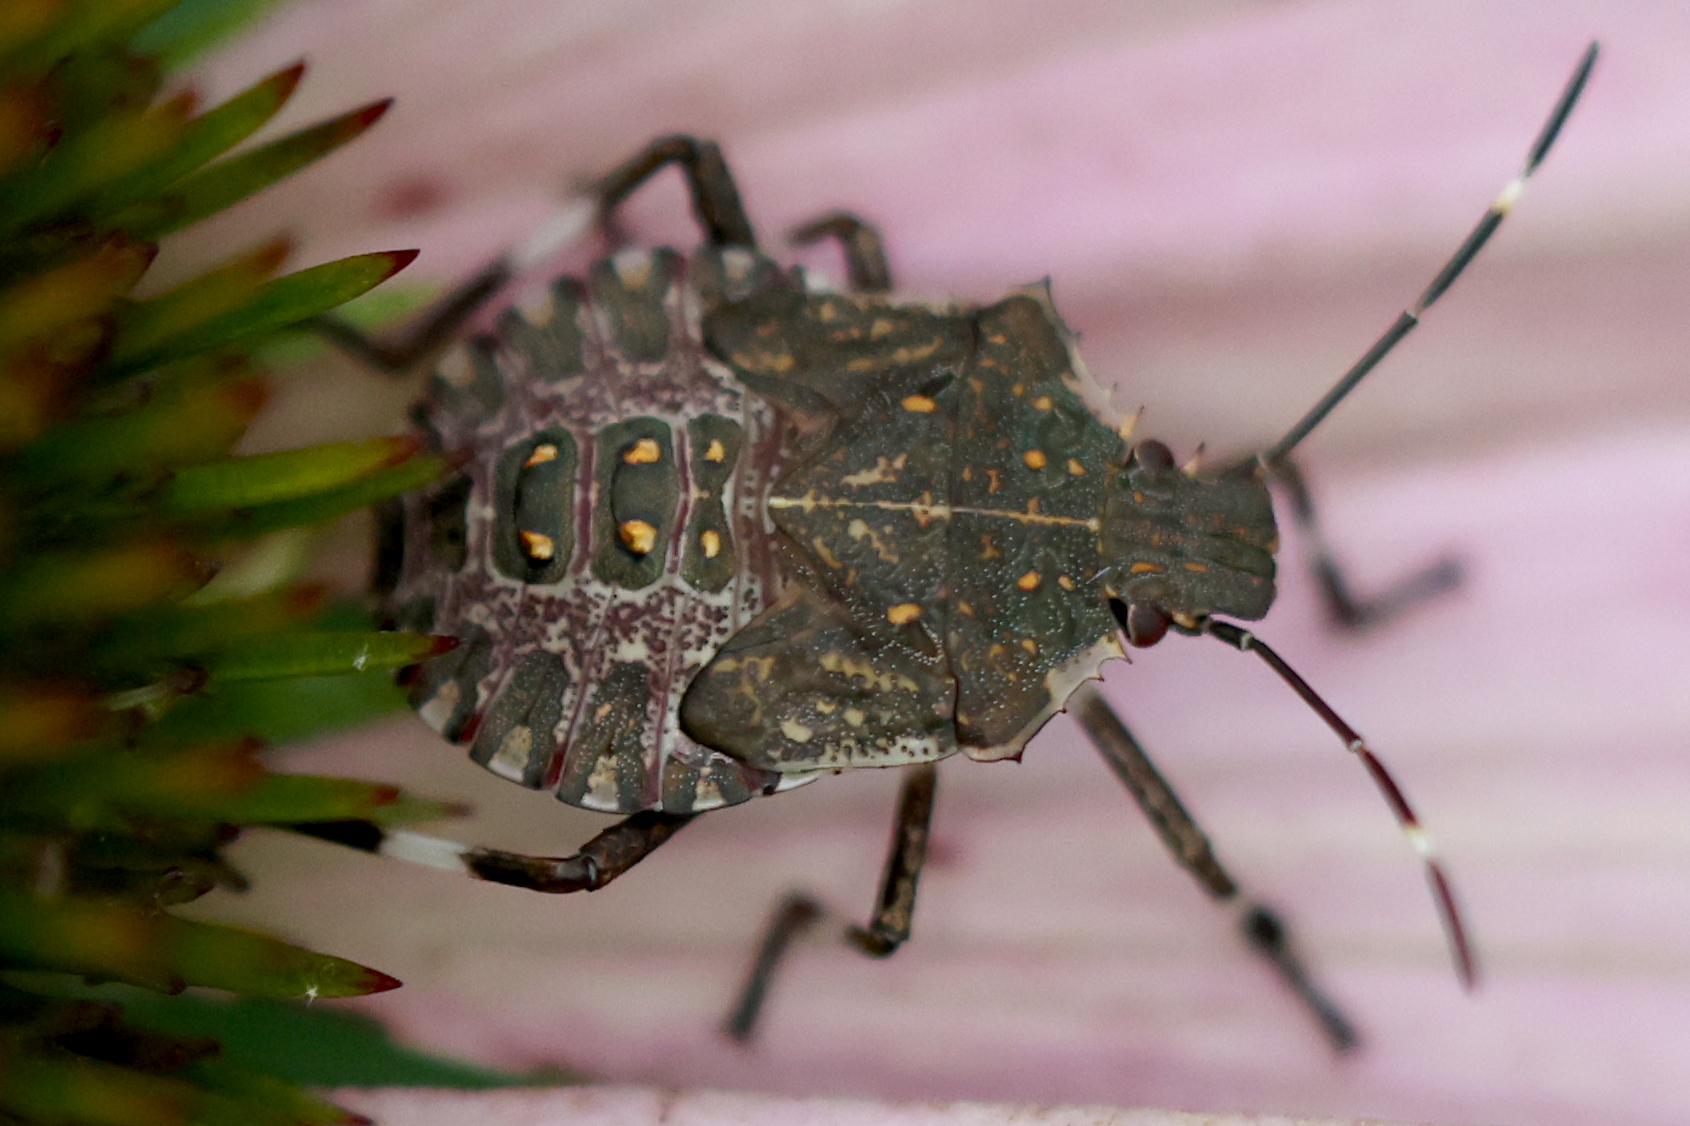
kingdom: Animalia
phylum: Arthropoda
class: Insecta
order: Hemiptera
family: Pentatomidae
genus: Halyomorpha
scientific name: Halyomorpha halys
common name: Brown marmorated stink bug
